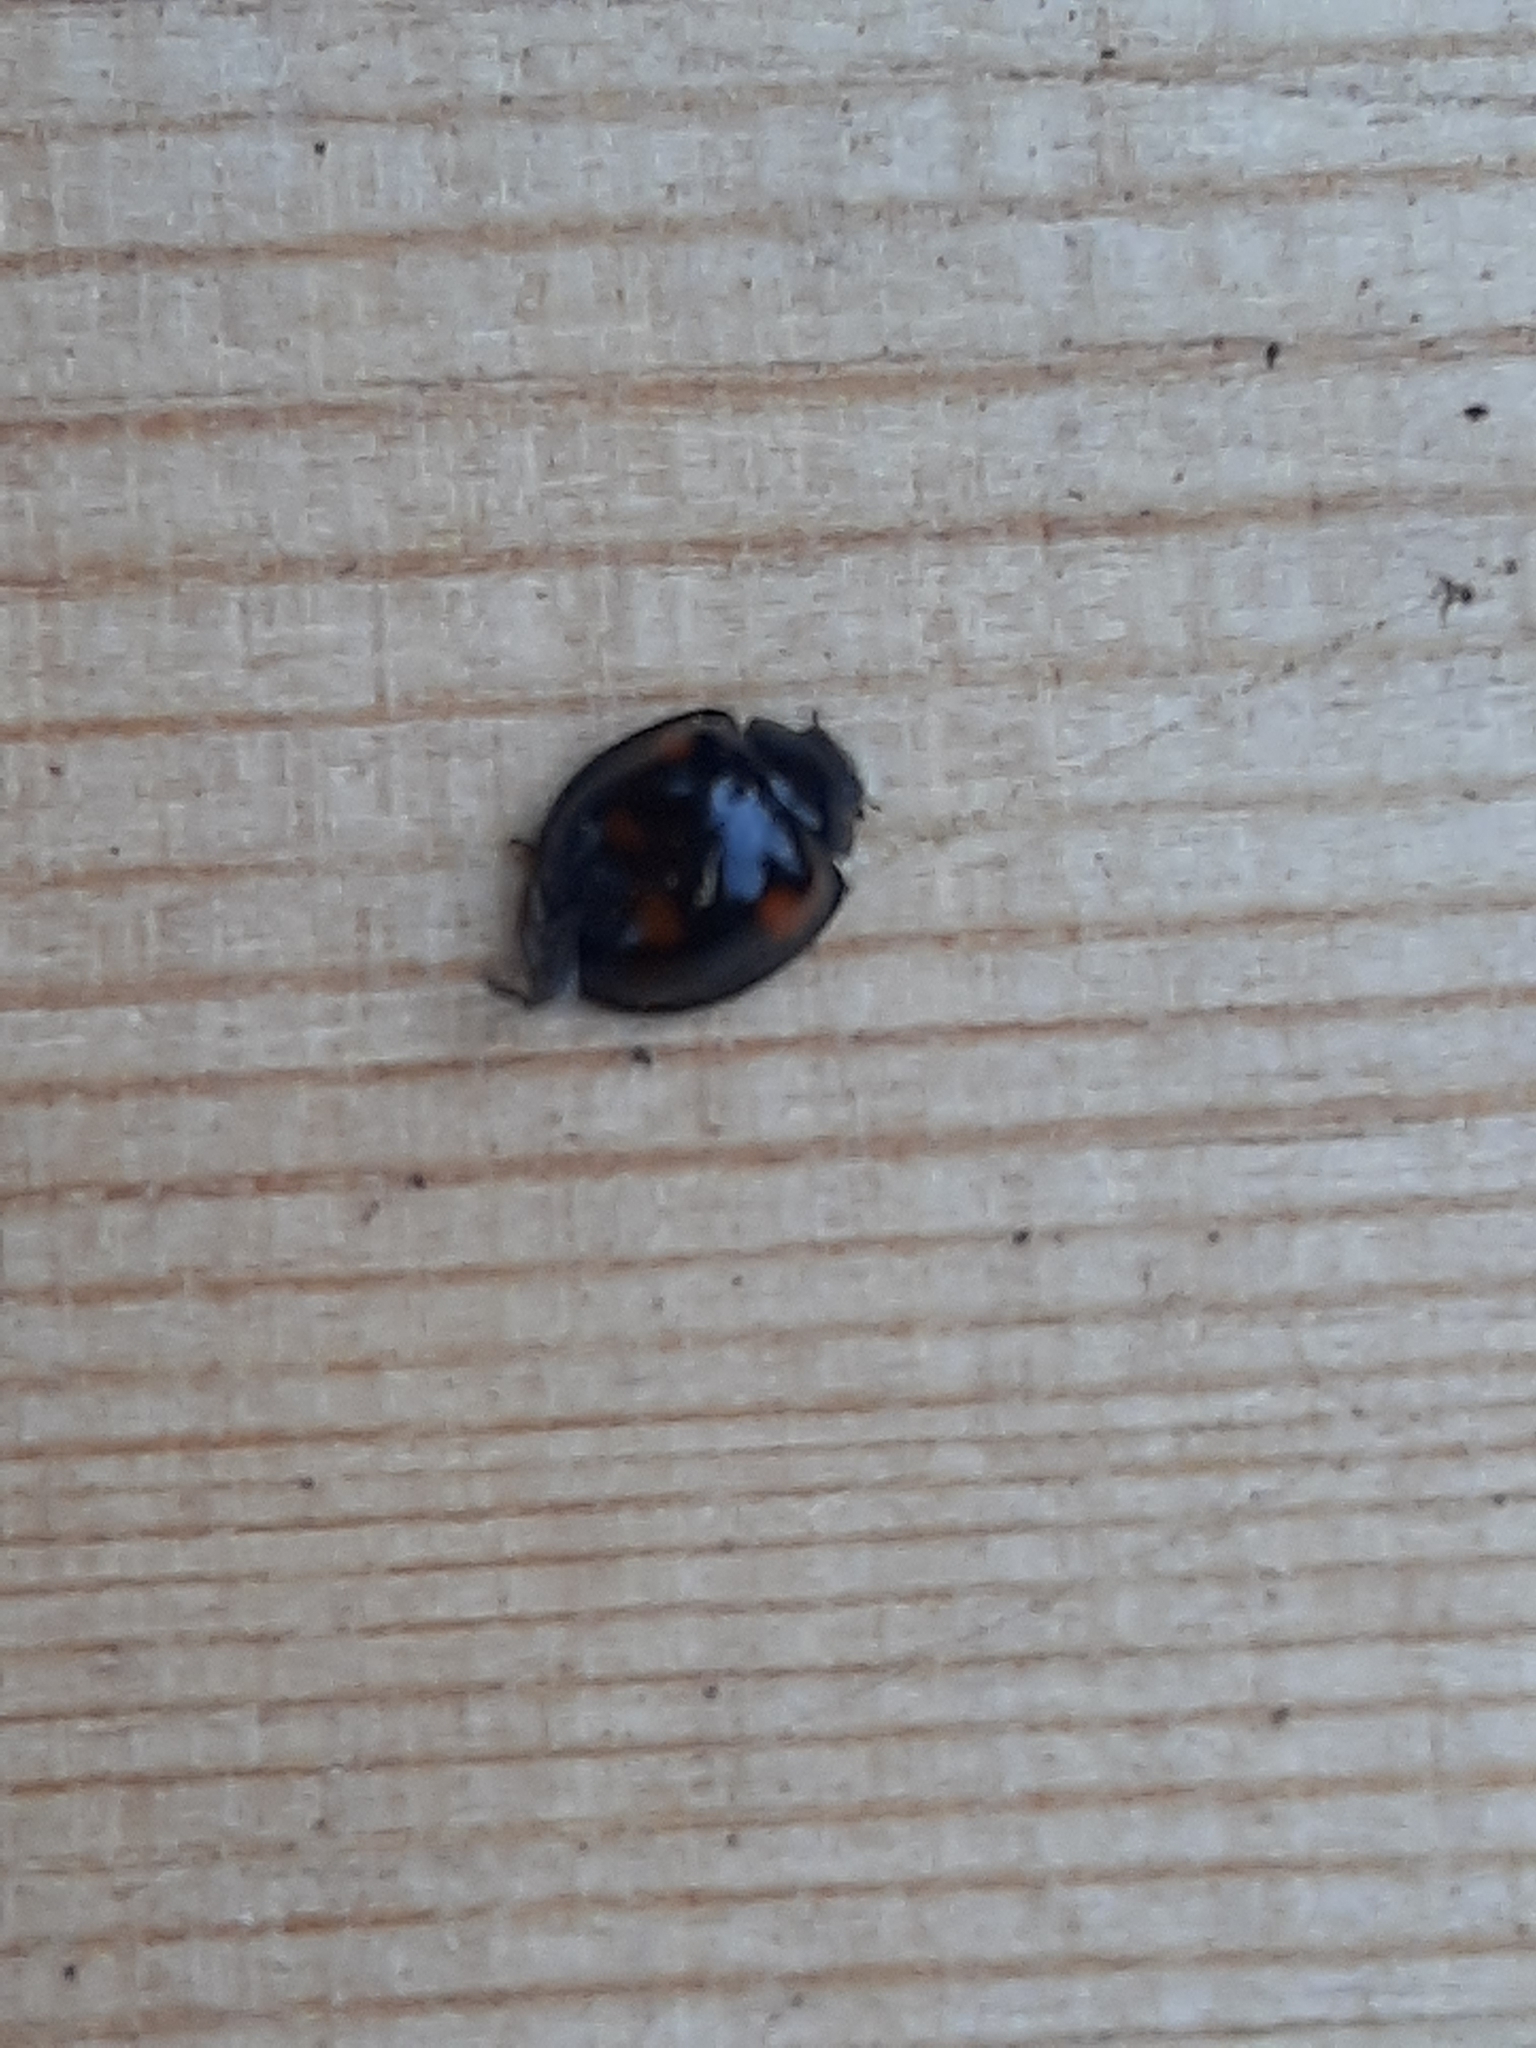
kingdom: Animalia
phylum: Arthropoda
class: Insecta
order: Coleoptera
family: Coccinellidae
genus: Brumus
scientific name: Brumus quadripustulatus
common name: Ladybird beetle
